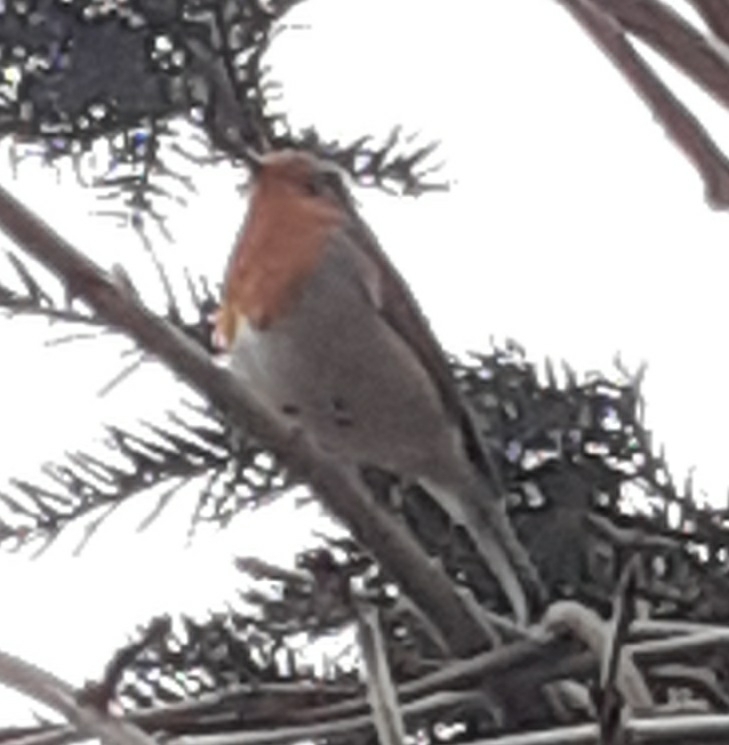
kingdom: Animalia
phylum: Chordata
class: Aves
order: Passeriformes
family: Muscicapidae
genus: Erithacus
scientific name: Erithacus rubecula
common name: European robin
